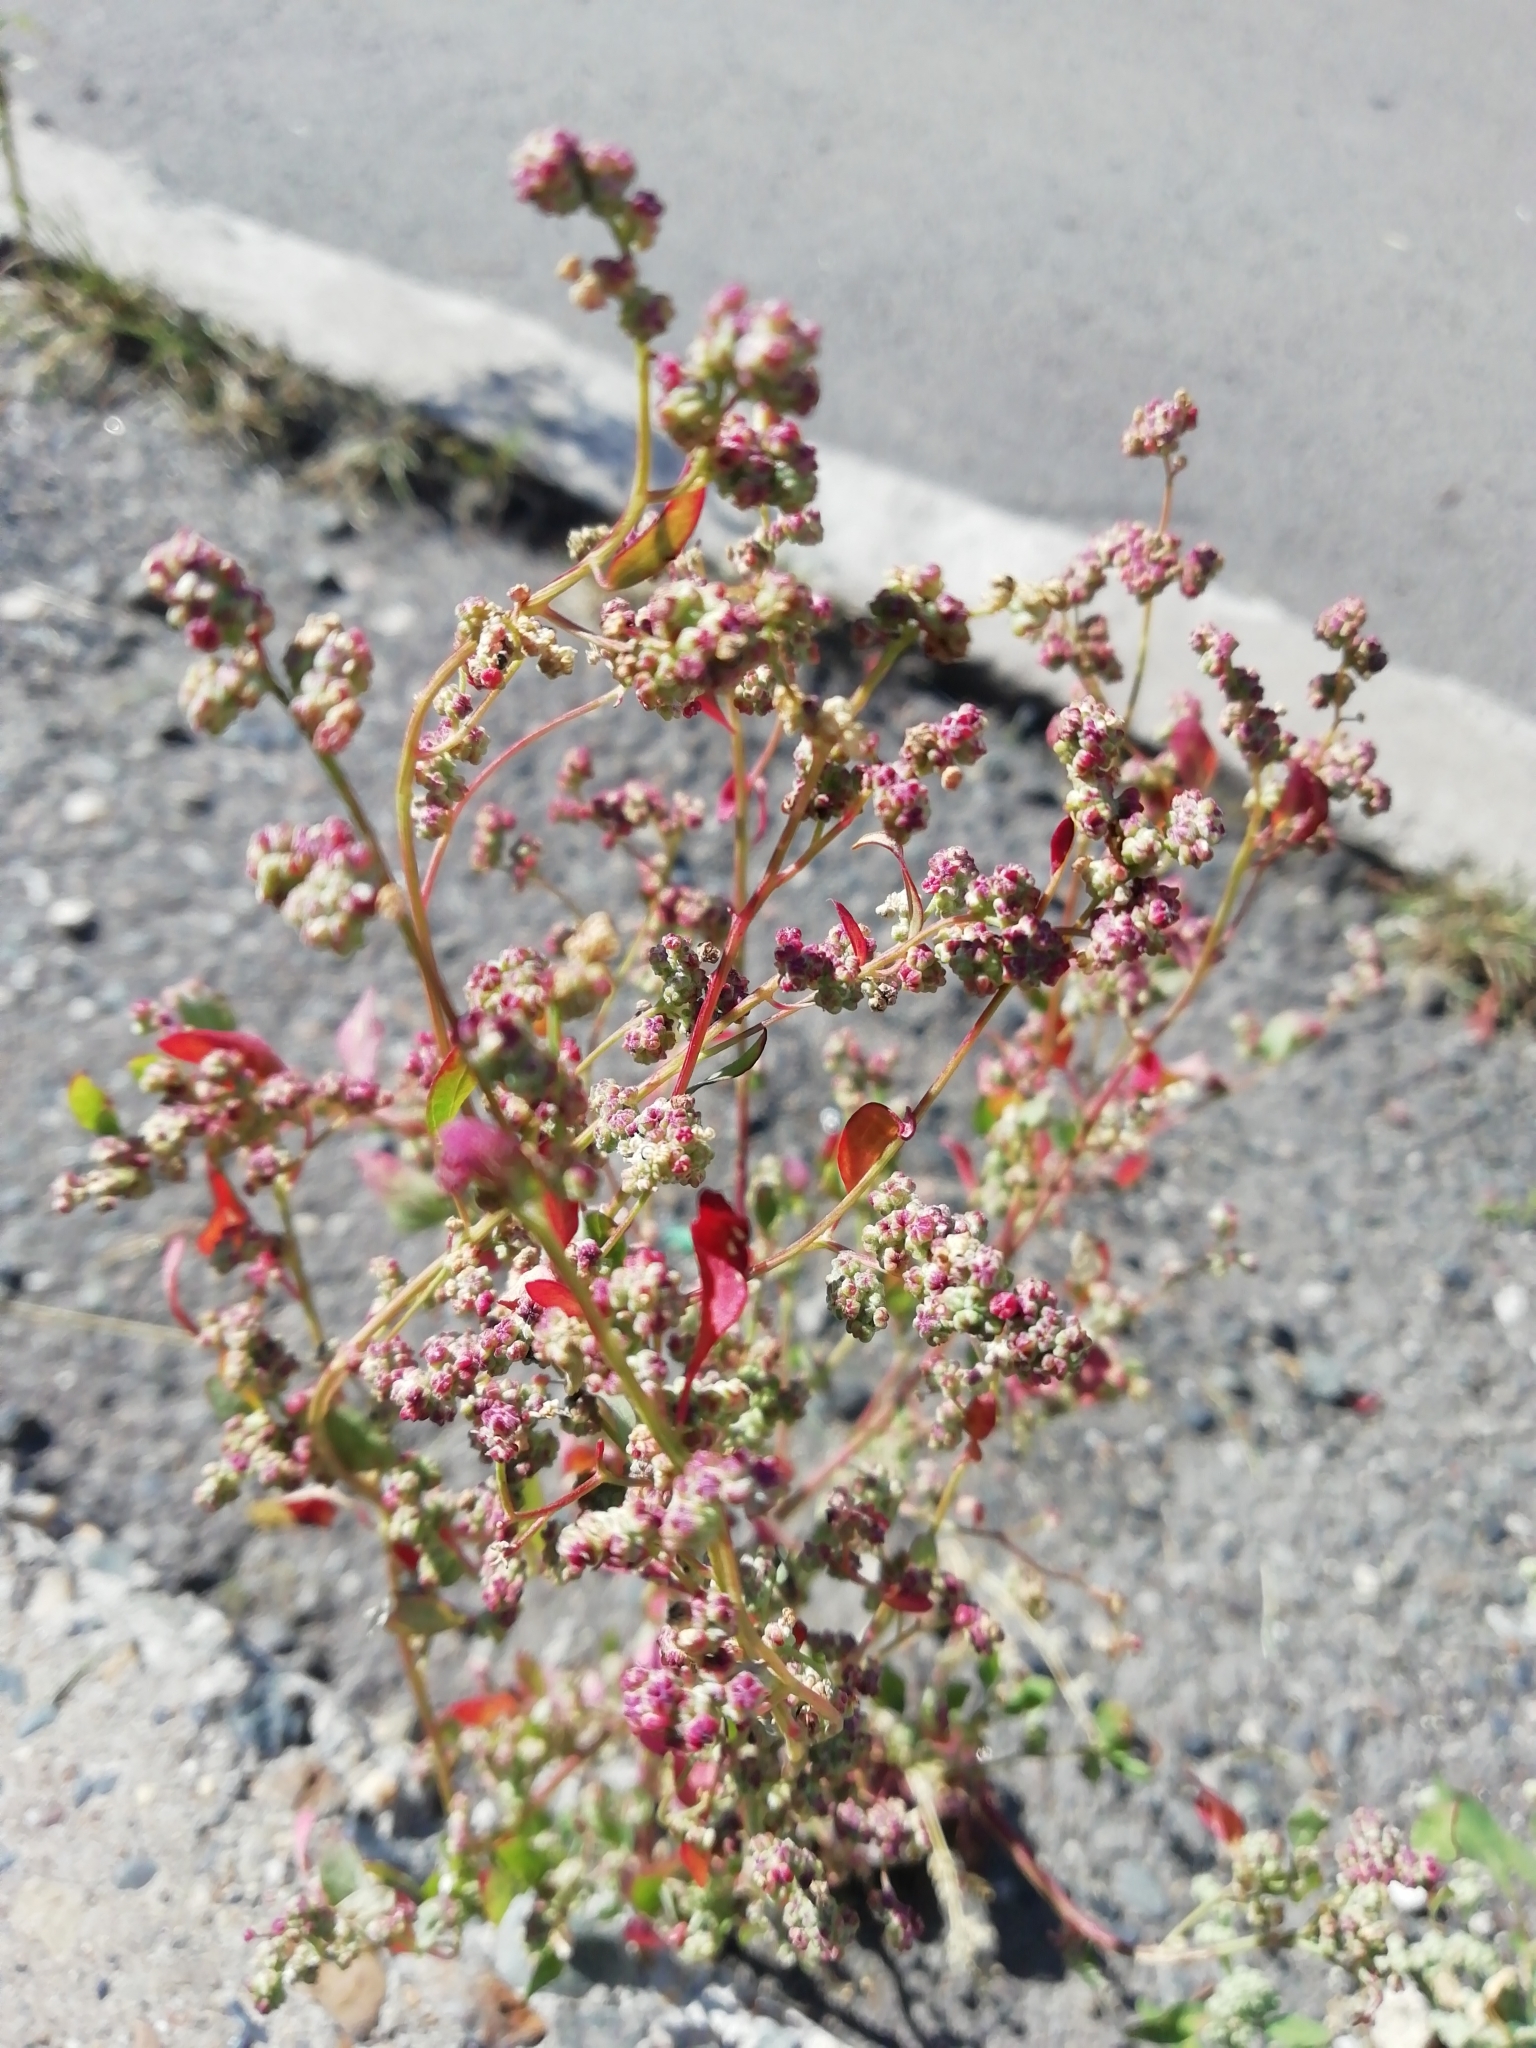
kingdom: Plantae
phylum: Tracheophyta
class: Magnoliopsida
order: Caryophyllales
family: Amaranthaceae
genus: Chenopodium
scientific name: Chenopodium album
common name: Fat-hen
